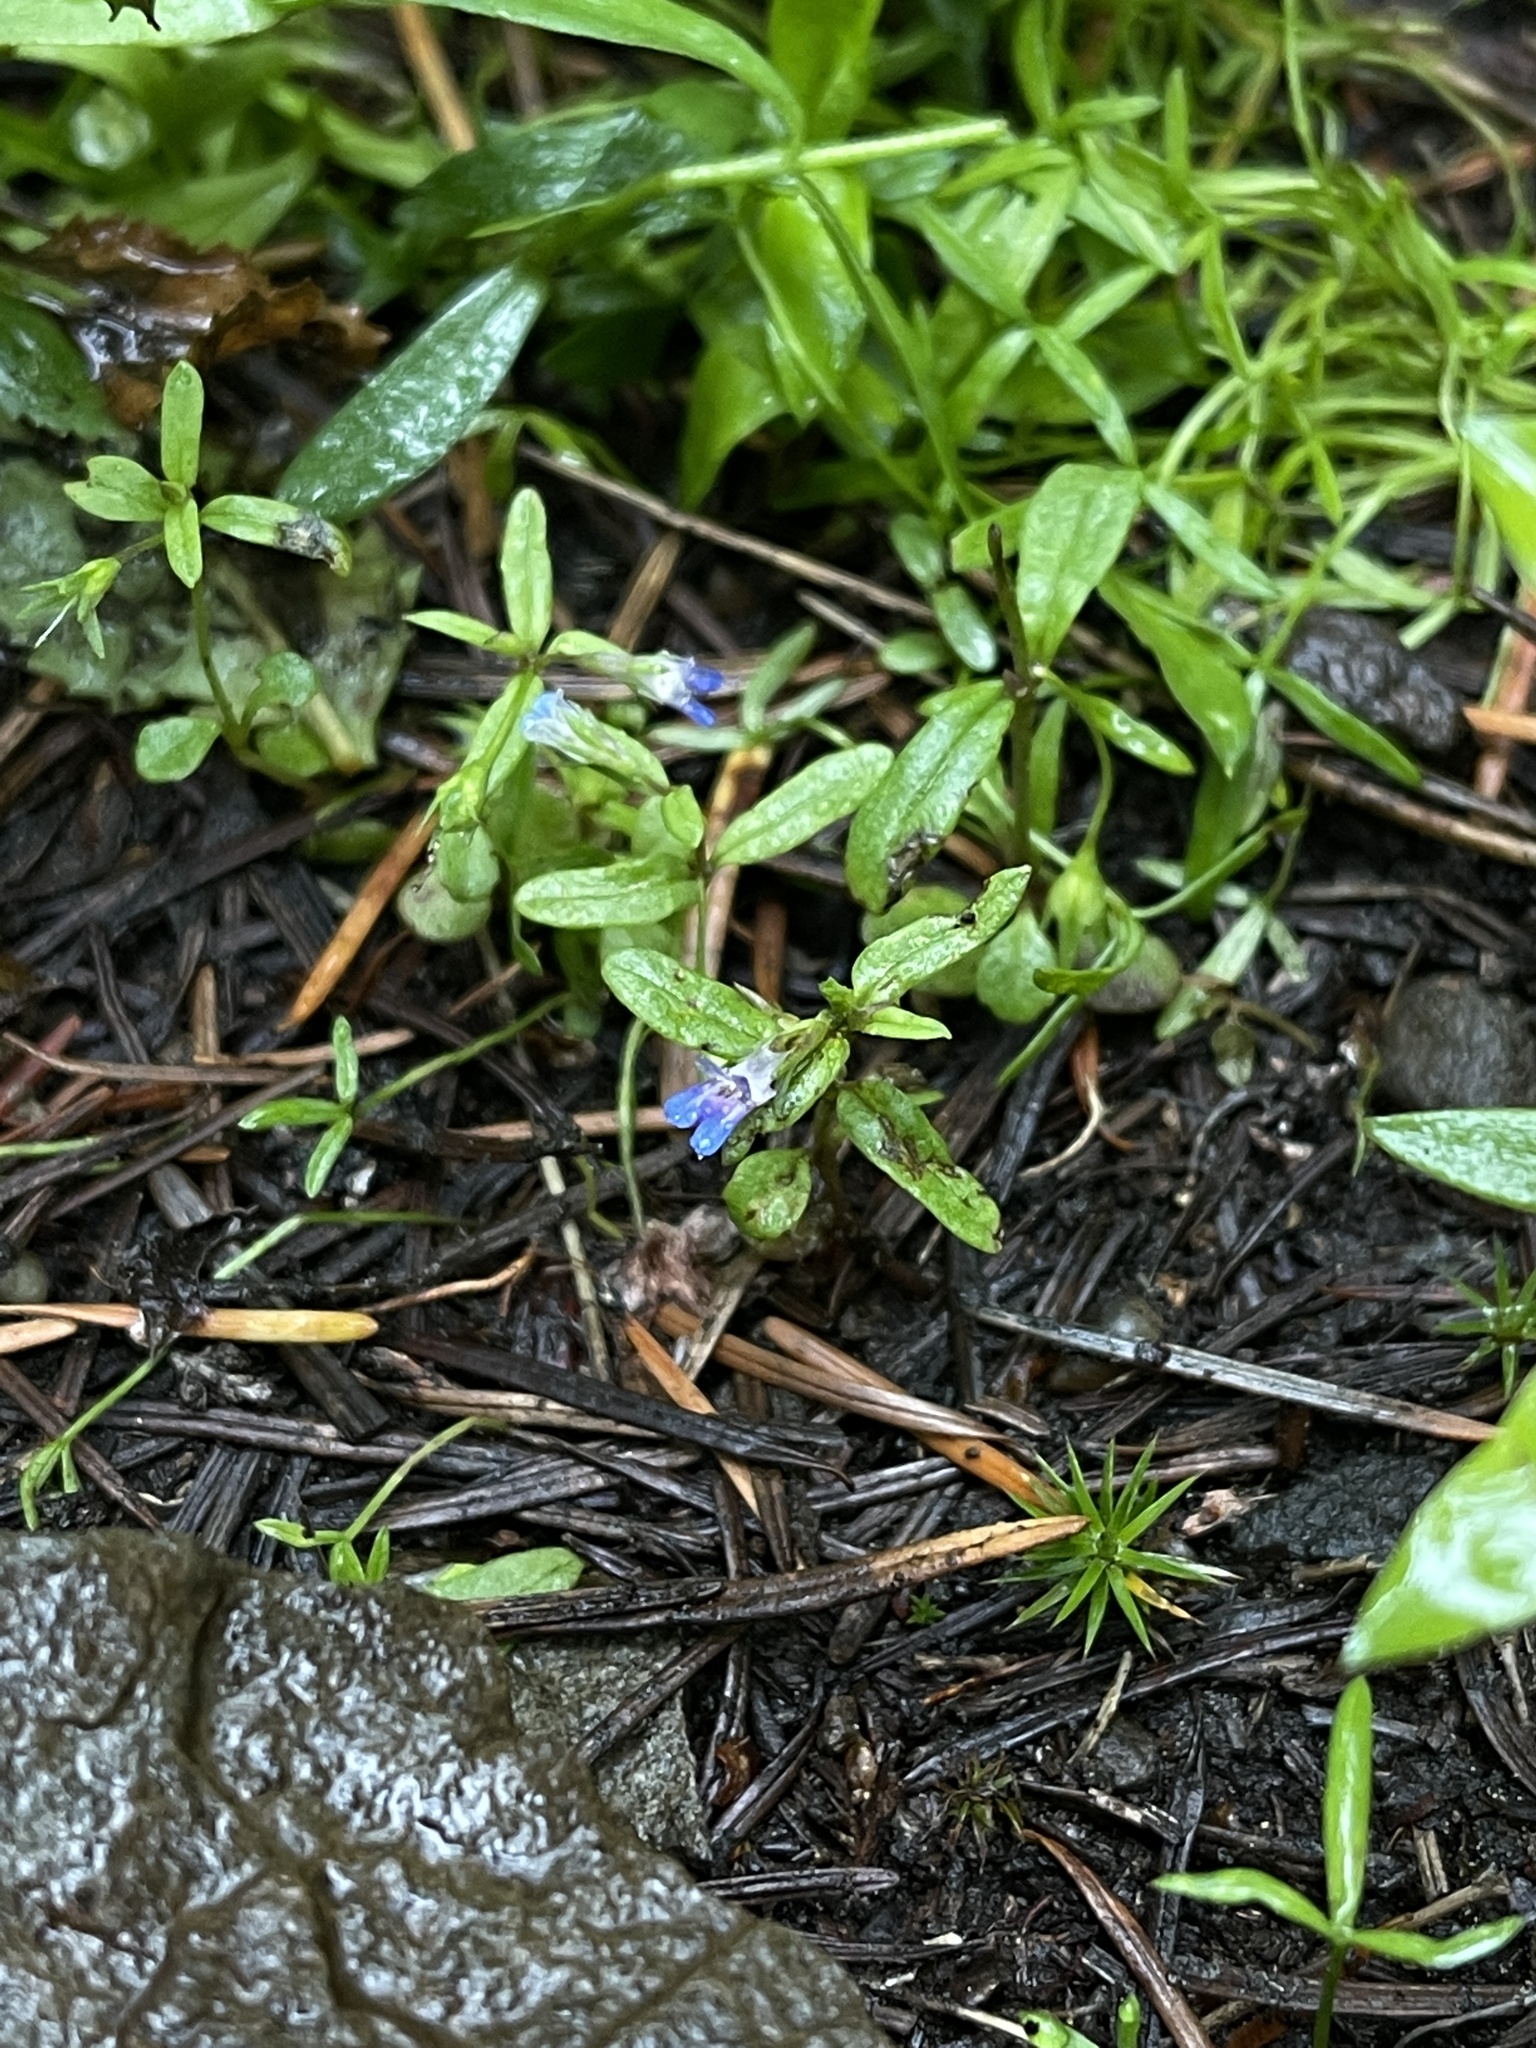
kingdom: Plantae
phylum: Tracheophyta
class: Magnoliopsida
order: Lamiales
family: Plantaginaceae
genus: Collinsia
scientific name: Collinsia parviflora
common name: Blue-lips
